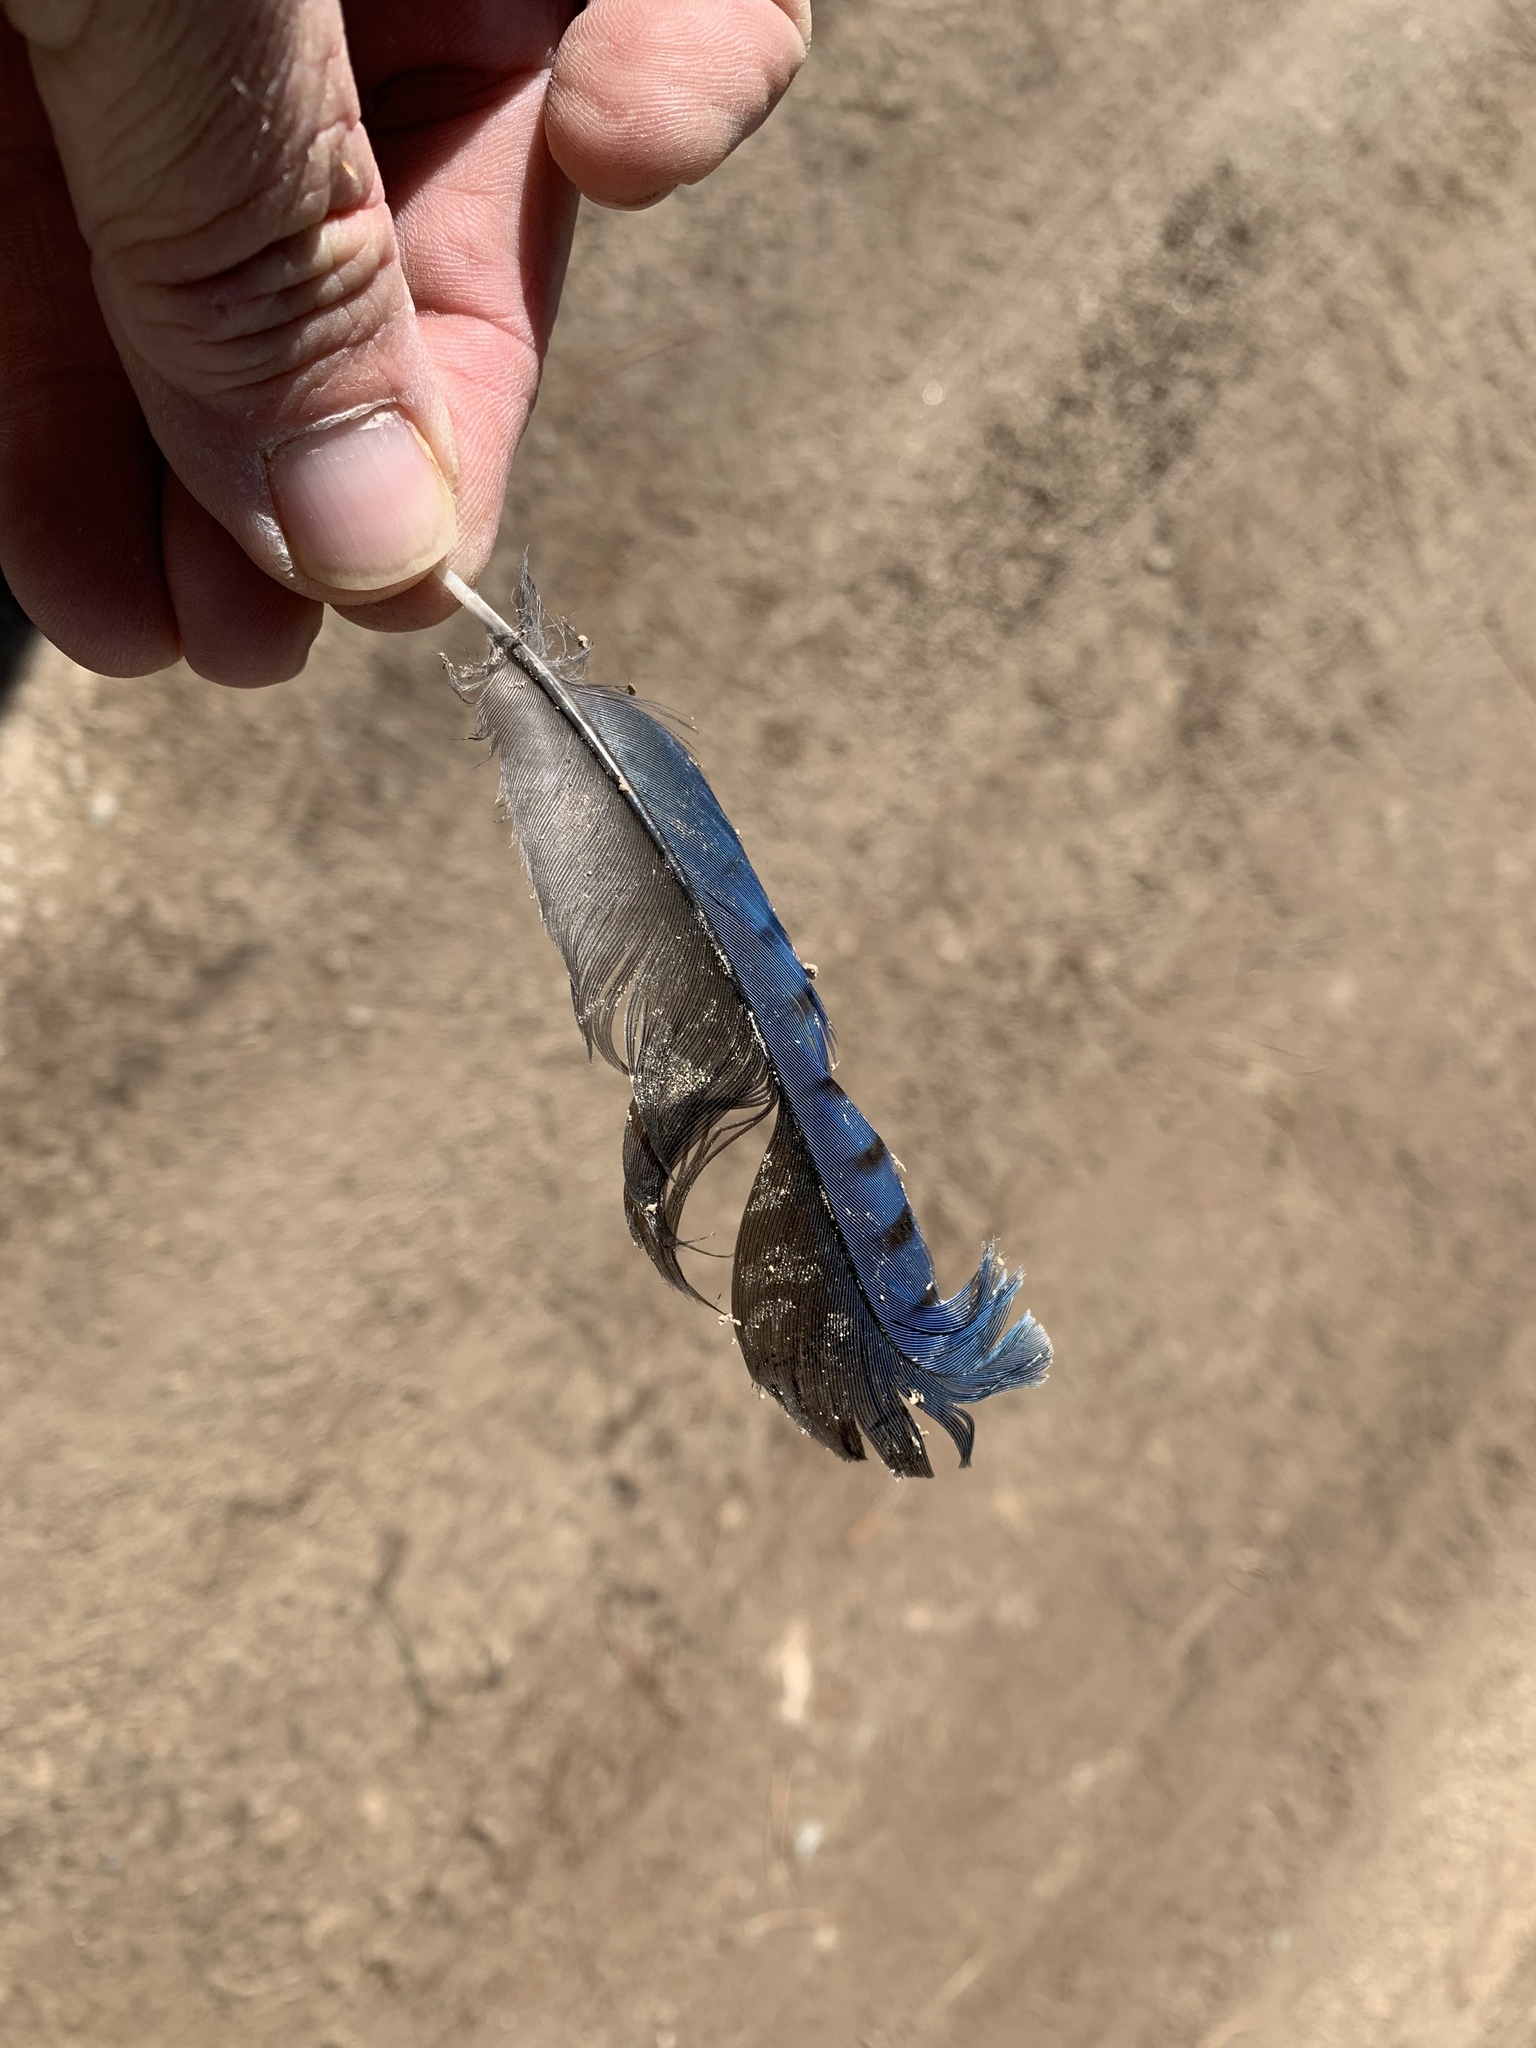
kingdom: Animalia
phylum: Chordata
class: Aves
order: Passeriformes
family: Corvidae
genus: Cyanocitta
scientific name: Cyanocitta stelleri
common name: Steller's jay
